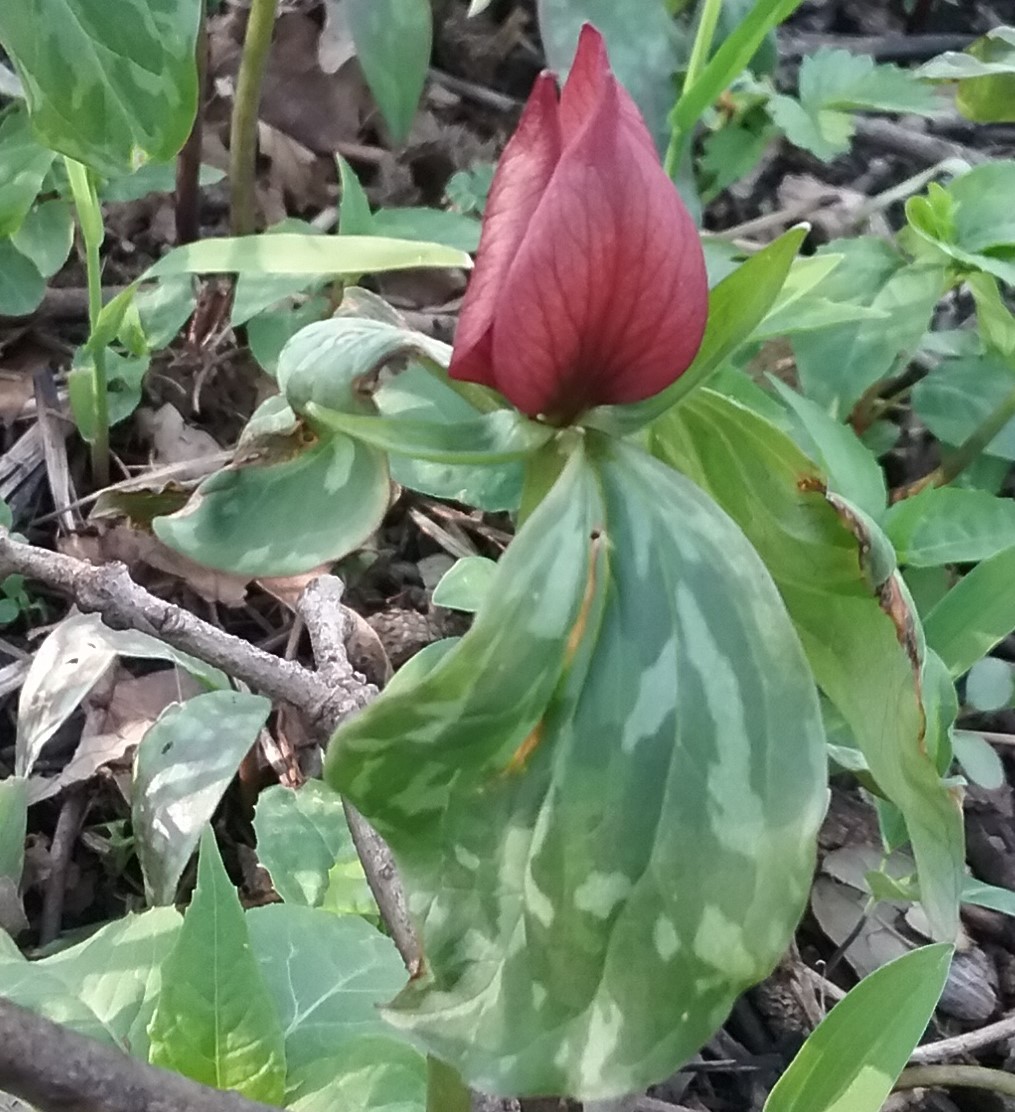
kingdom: Plantae
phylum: Tracheophyta
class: Liliopsida
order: Liliales
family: Melanthiaceae
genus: Trillium
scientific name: Trillium recurvatum
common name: Bloody butcher
